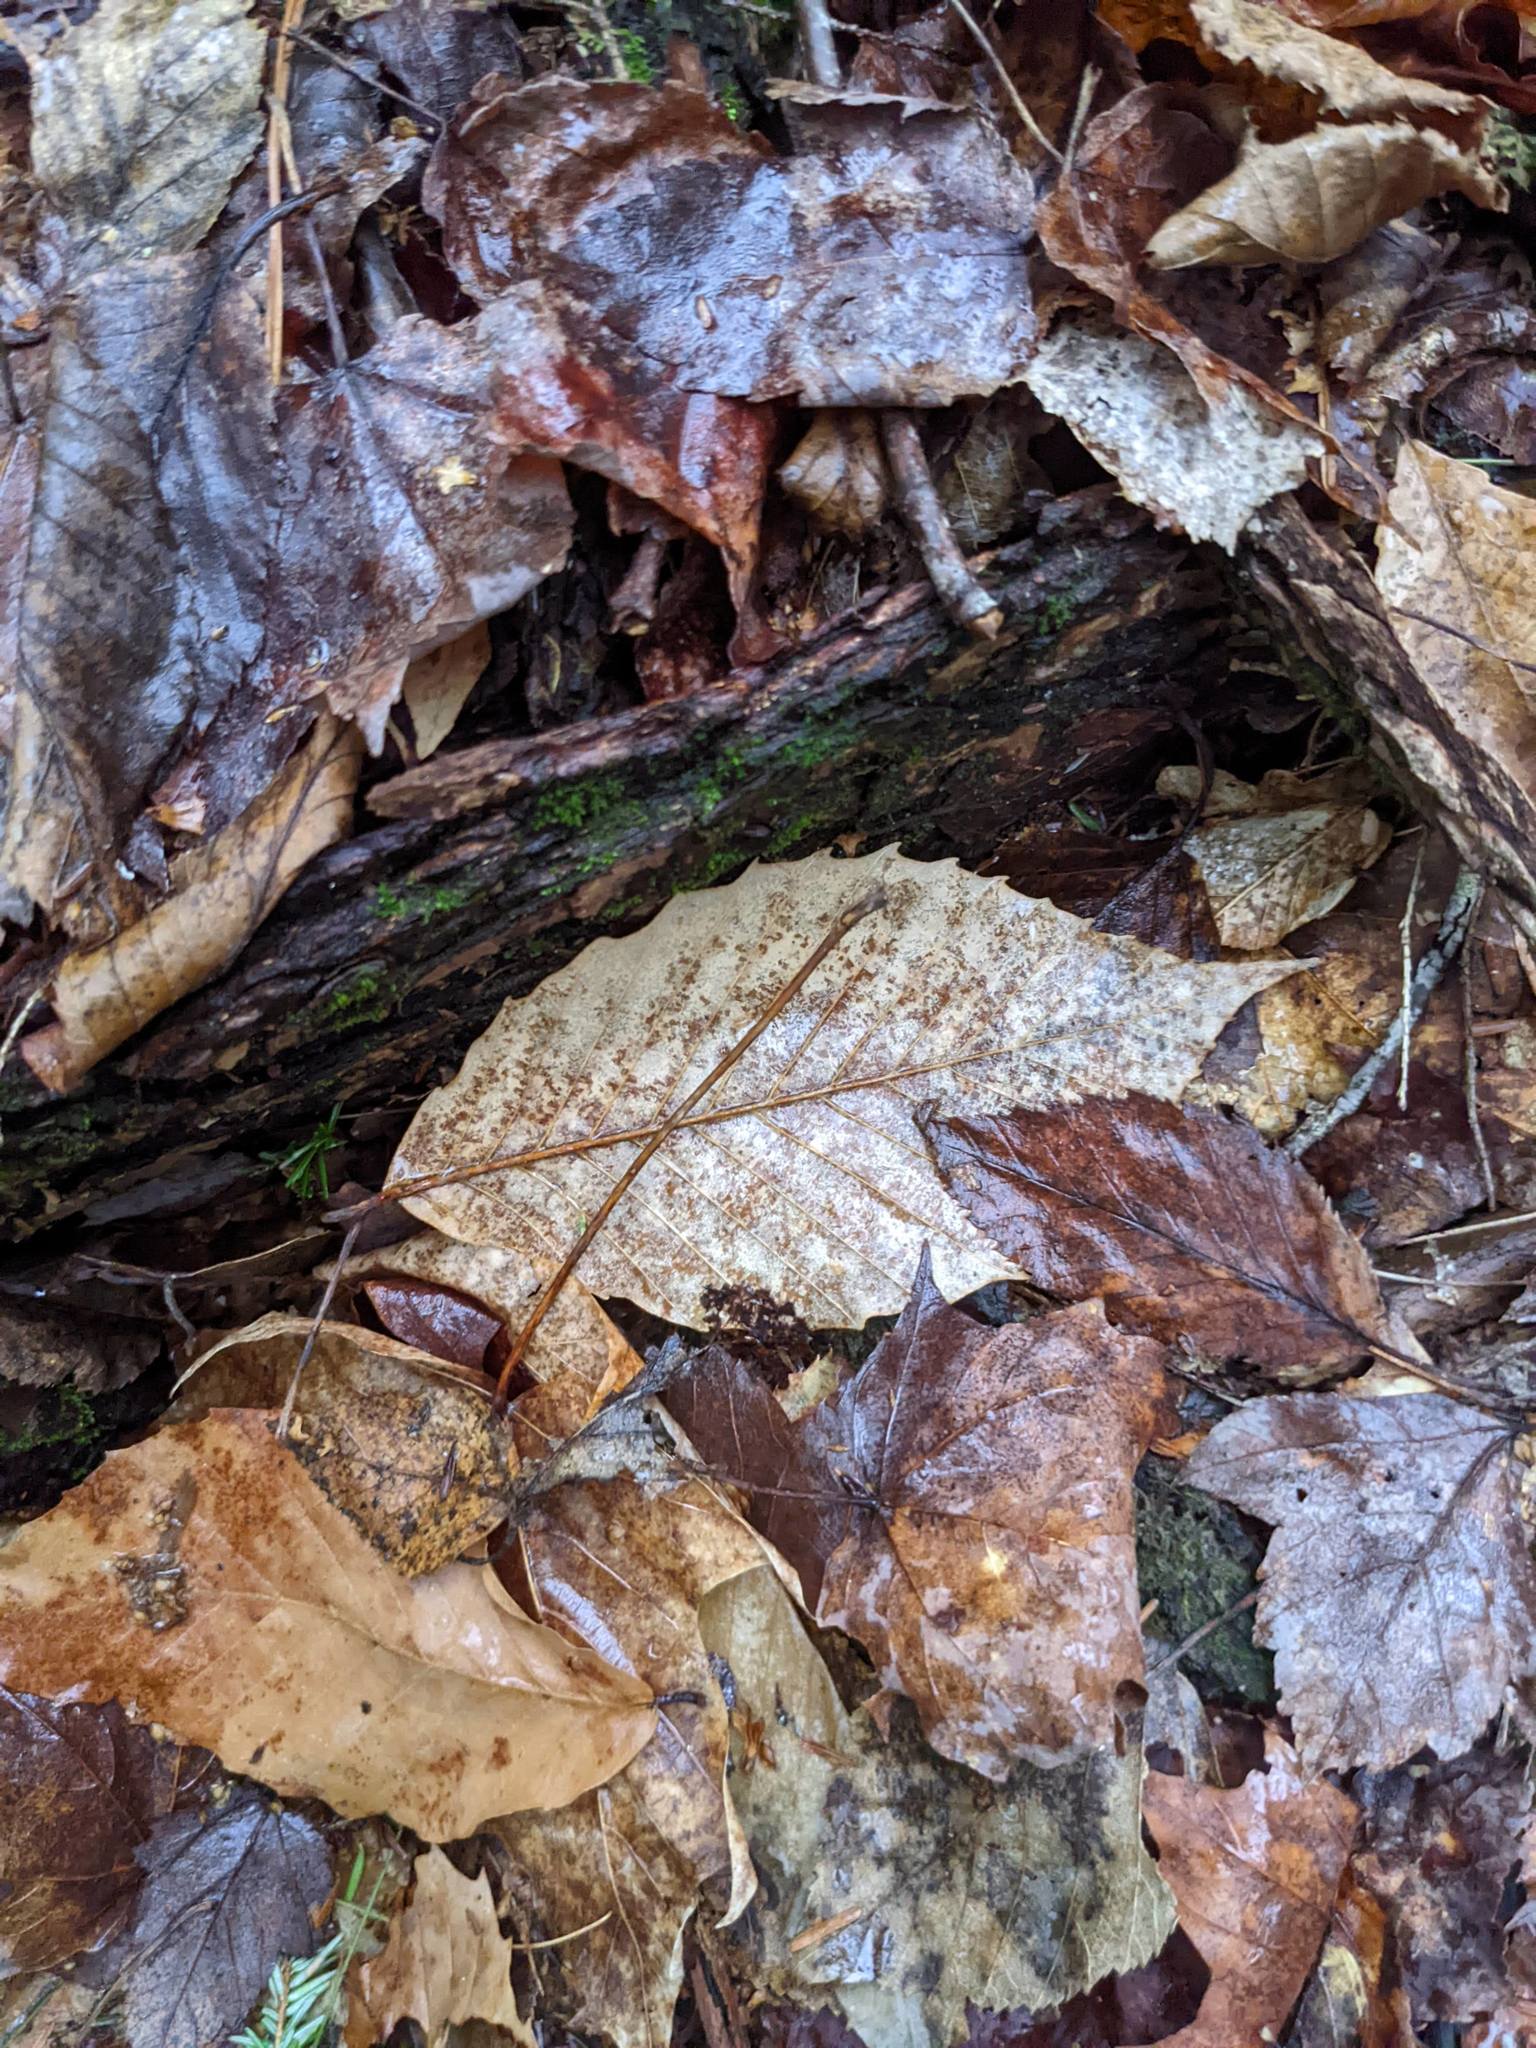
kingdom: Plantae
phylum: Tracheophyta
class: Magnoliopsida
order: Fagales
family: Fagaceae
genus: Fagus
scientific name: Fagus grandifolia
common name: American beech
